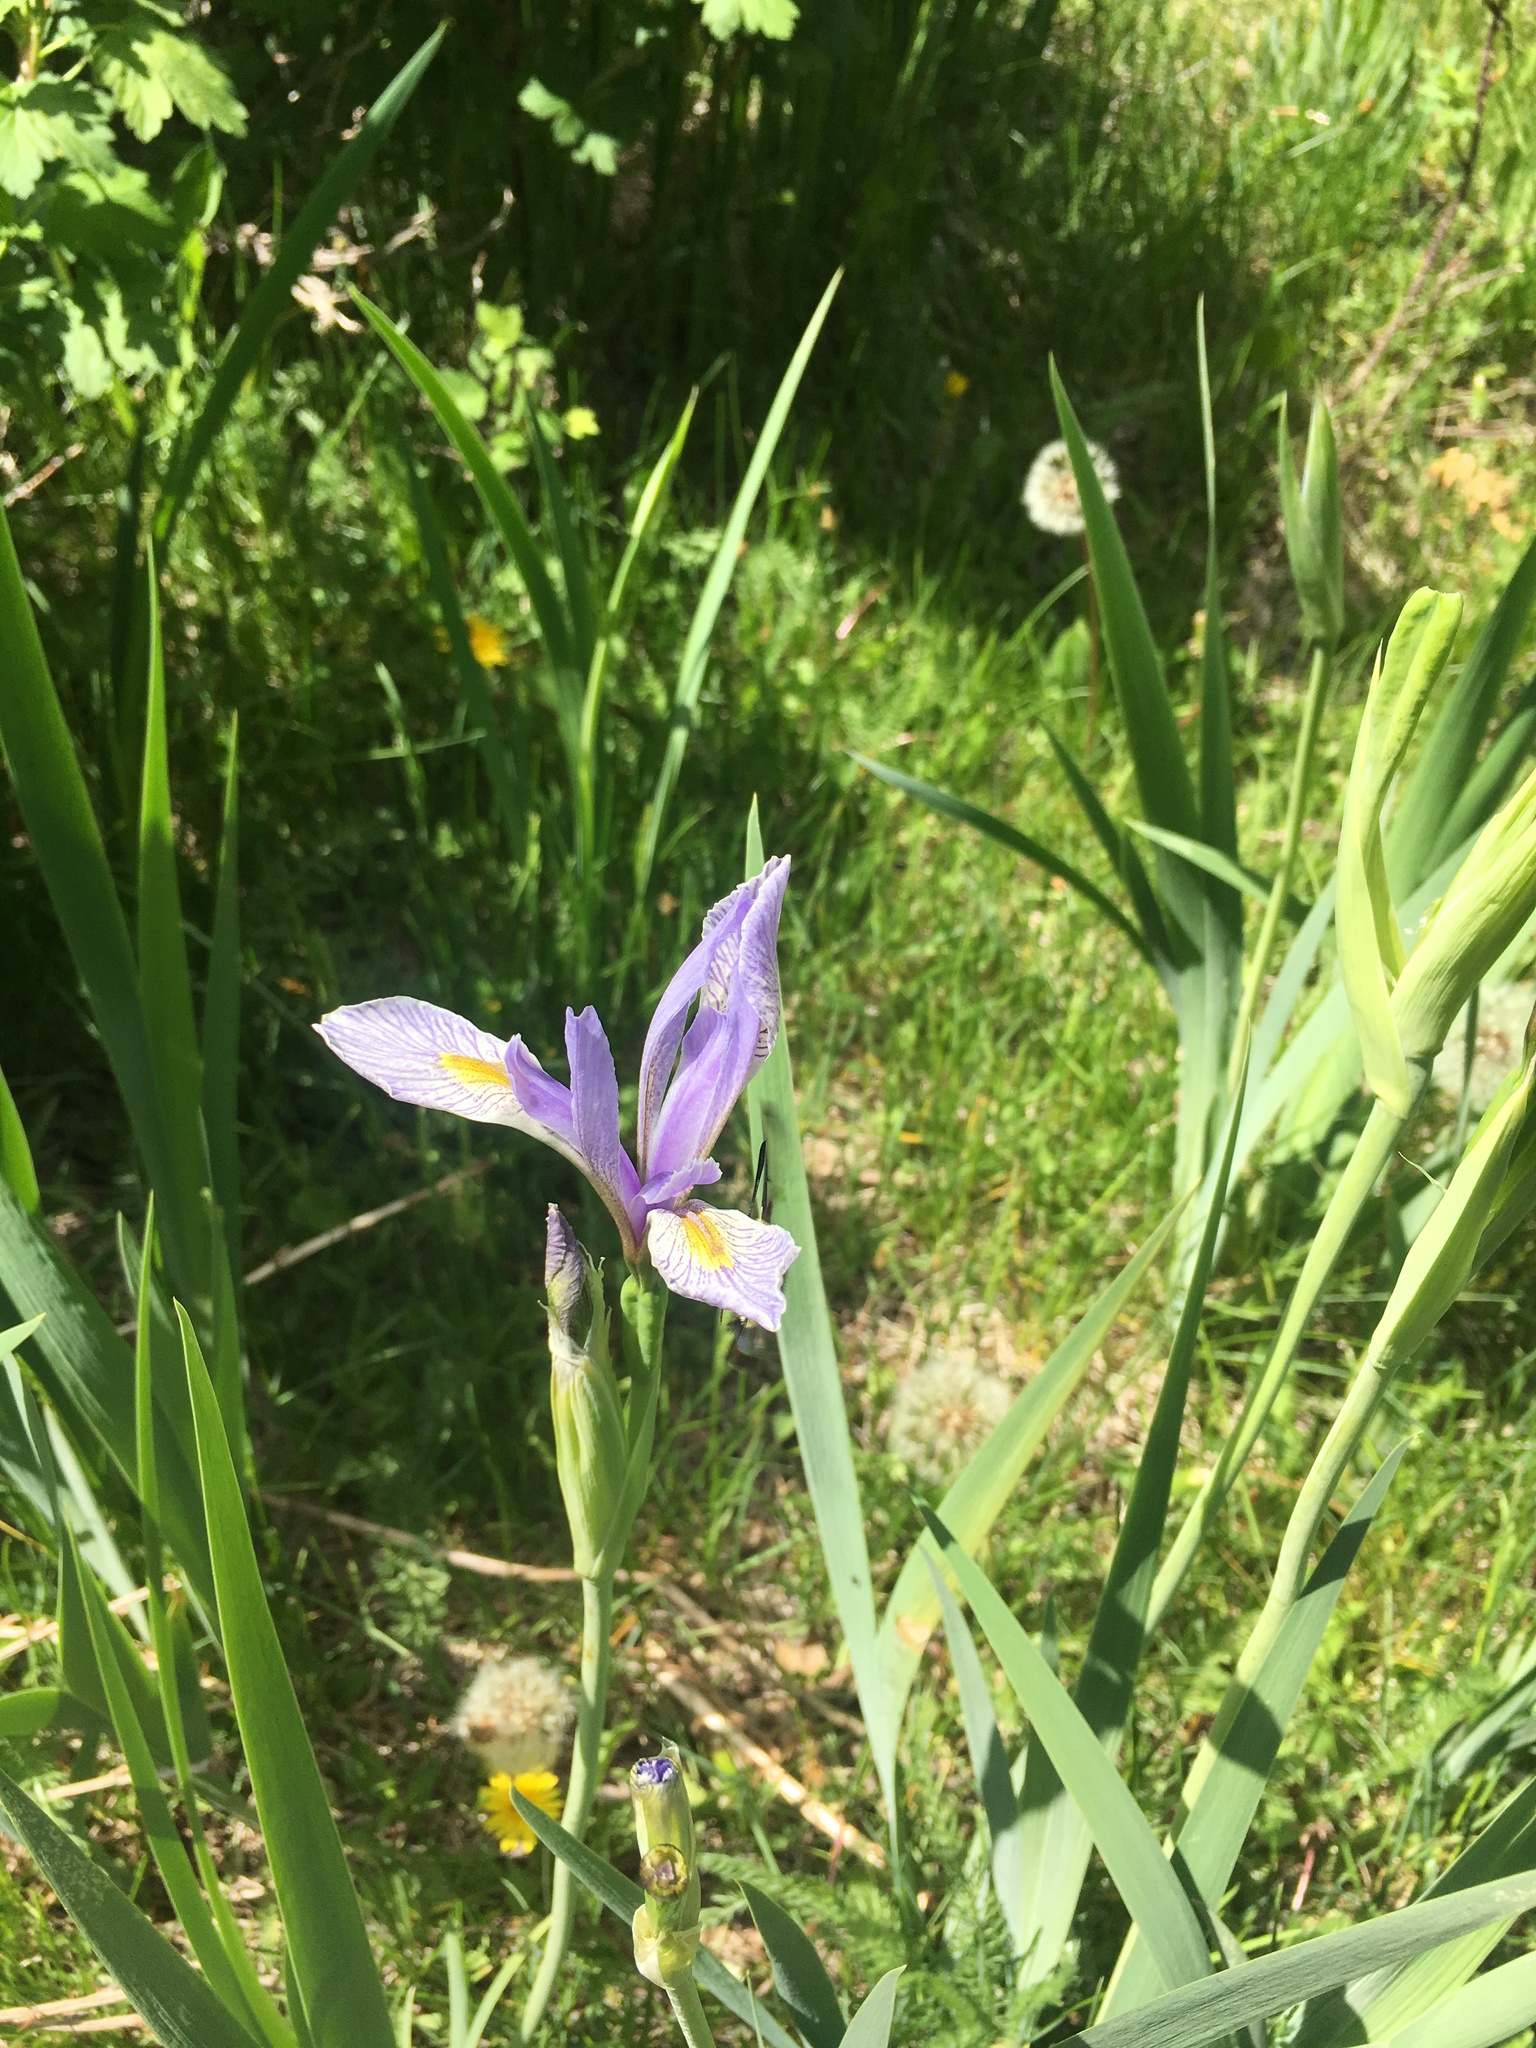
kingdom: Plantae
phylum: Tracheophyta
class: Liliopsida
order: Asparagales
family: Iridaceae
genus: Iris
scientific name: Iris missouriensis
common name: Rocky mountain iris
